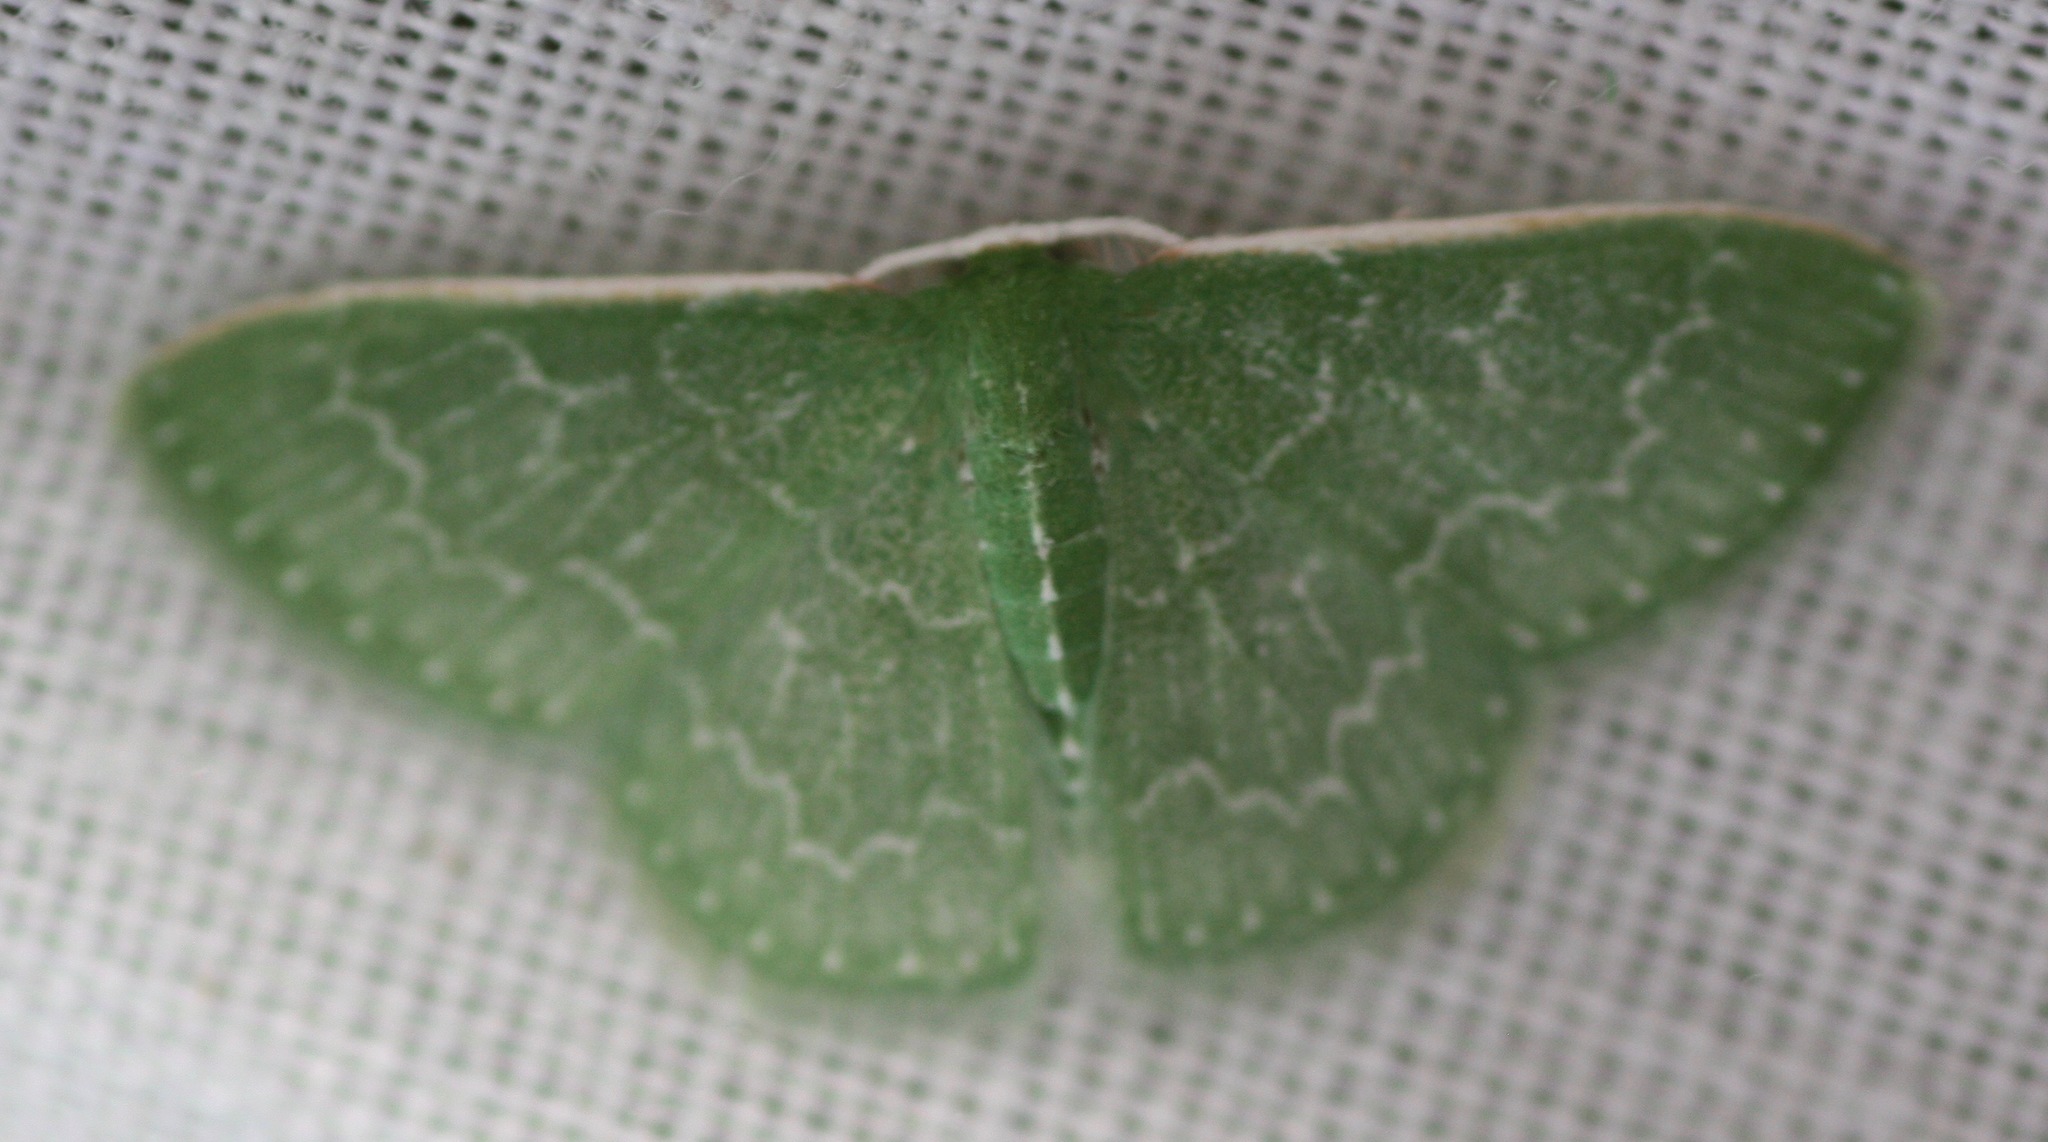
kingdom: Animalia
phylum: Arthropoda
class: Insecta
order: Lepidoptera
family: Geometridae
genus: Synchlora
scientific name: Synchlora frondaria
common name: Southern emerald
